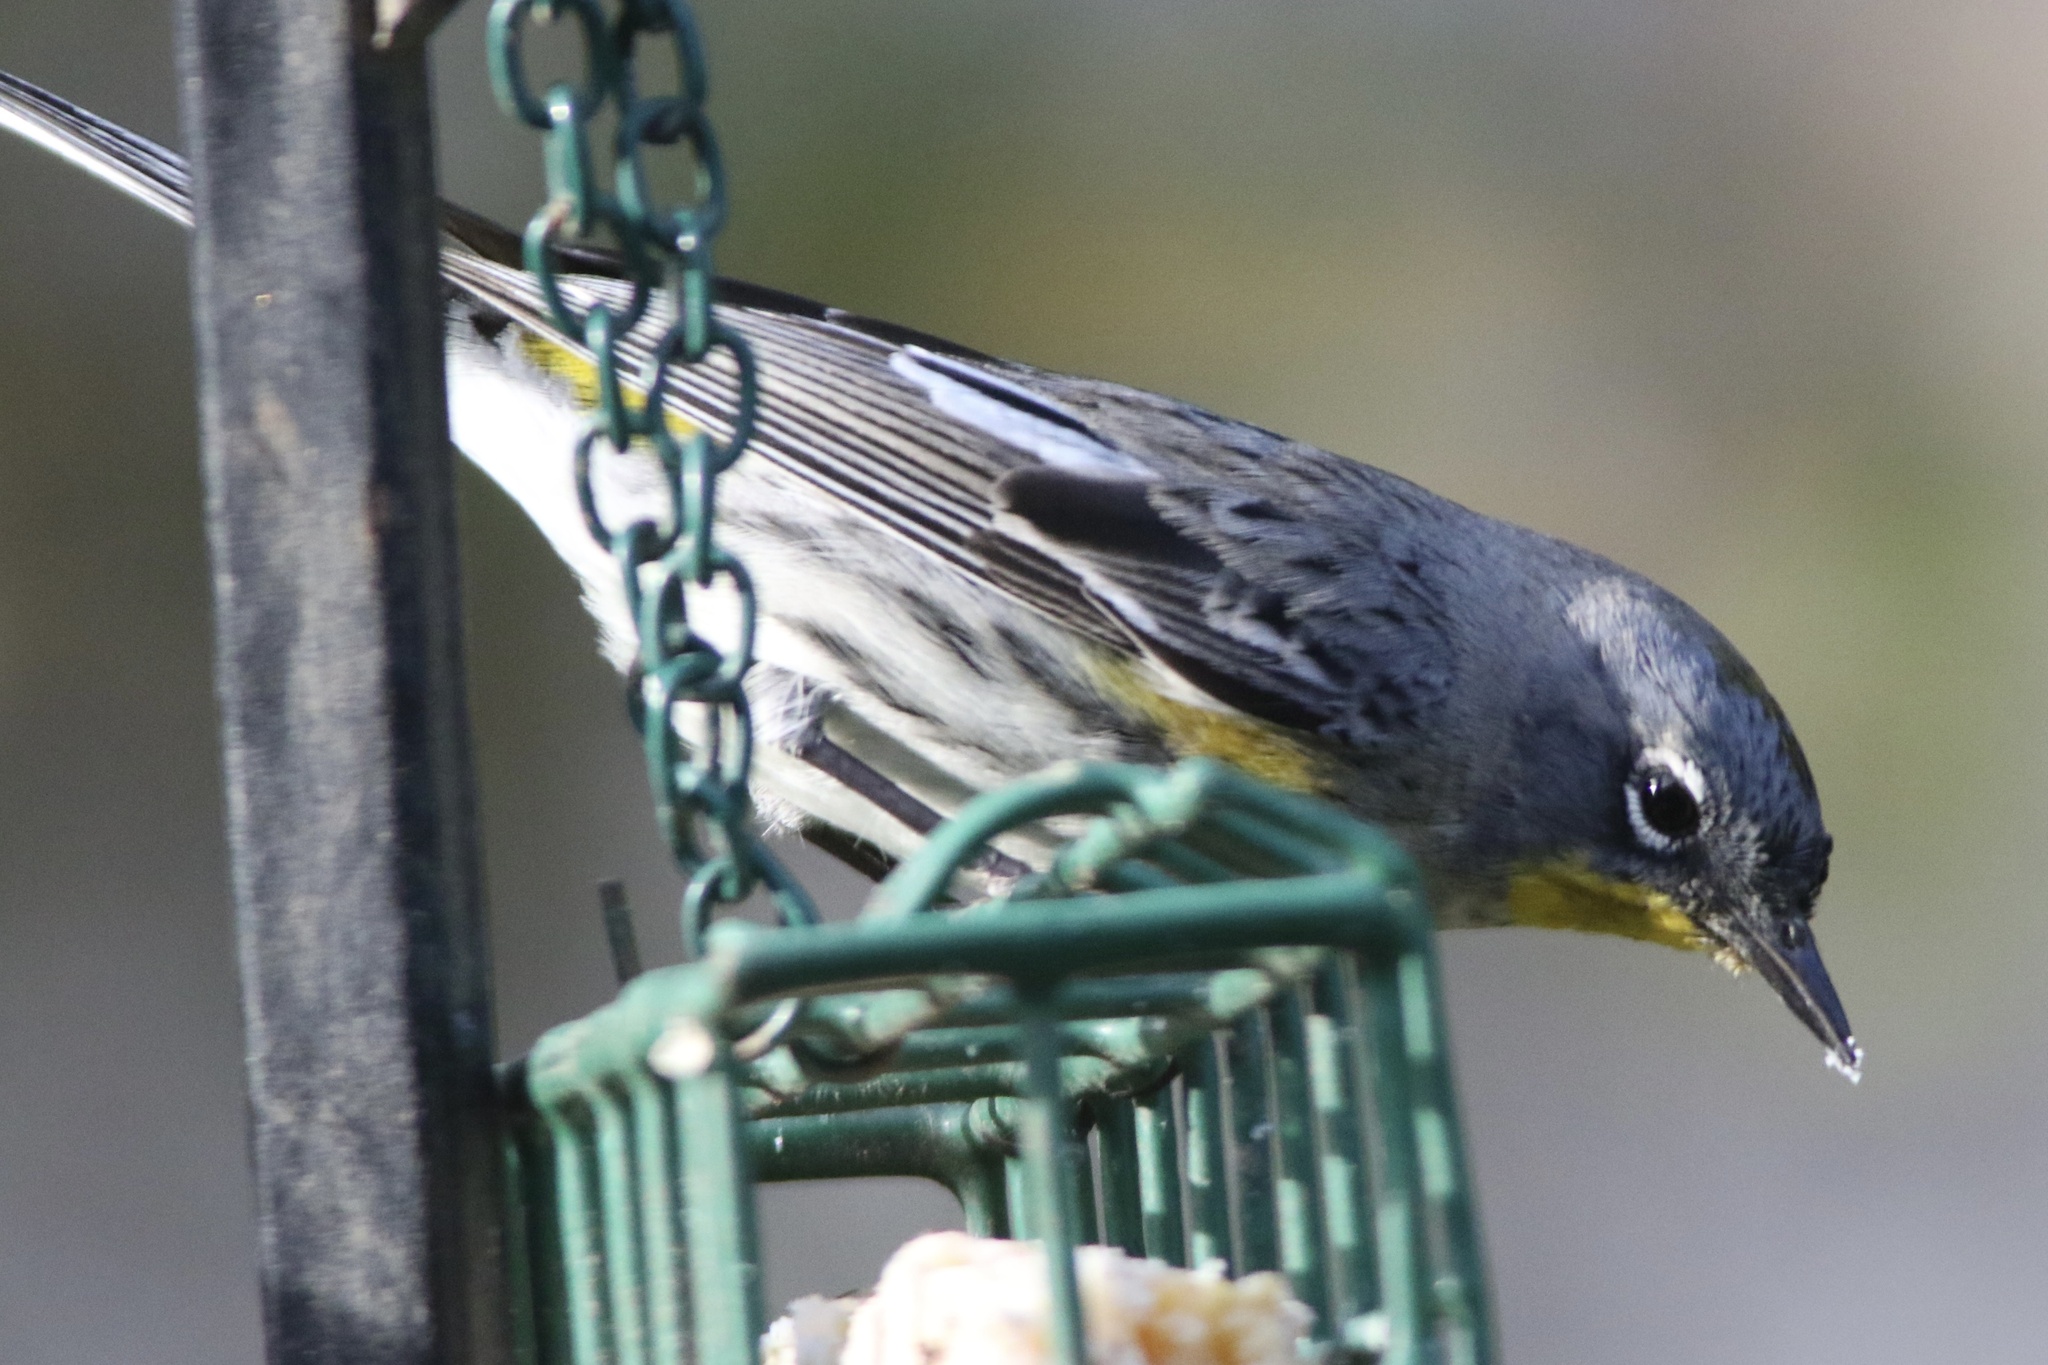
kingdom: Animalia
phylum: Chordata
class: Aves
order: Passeriformes
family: Parulidae
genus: Setophaga
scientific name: Setophaga coronata
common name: Myrtle warbler
